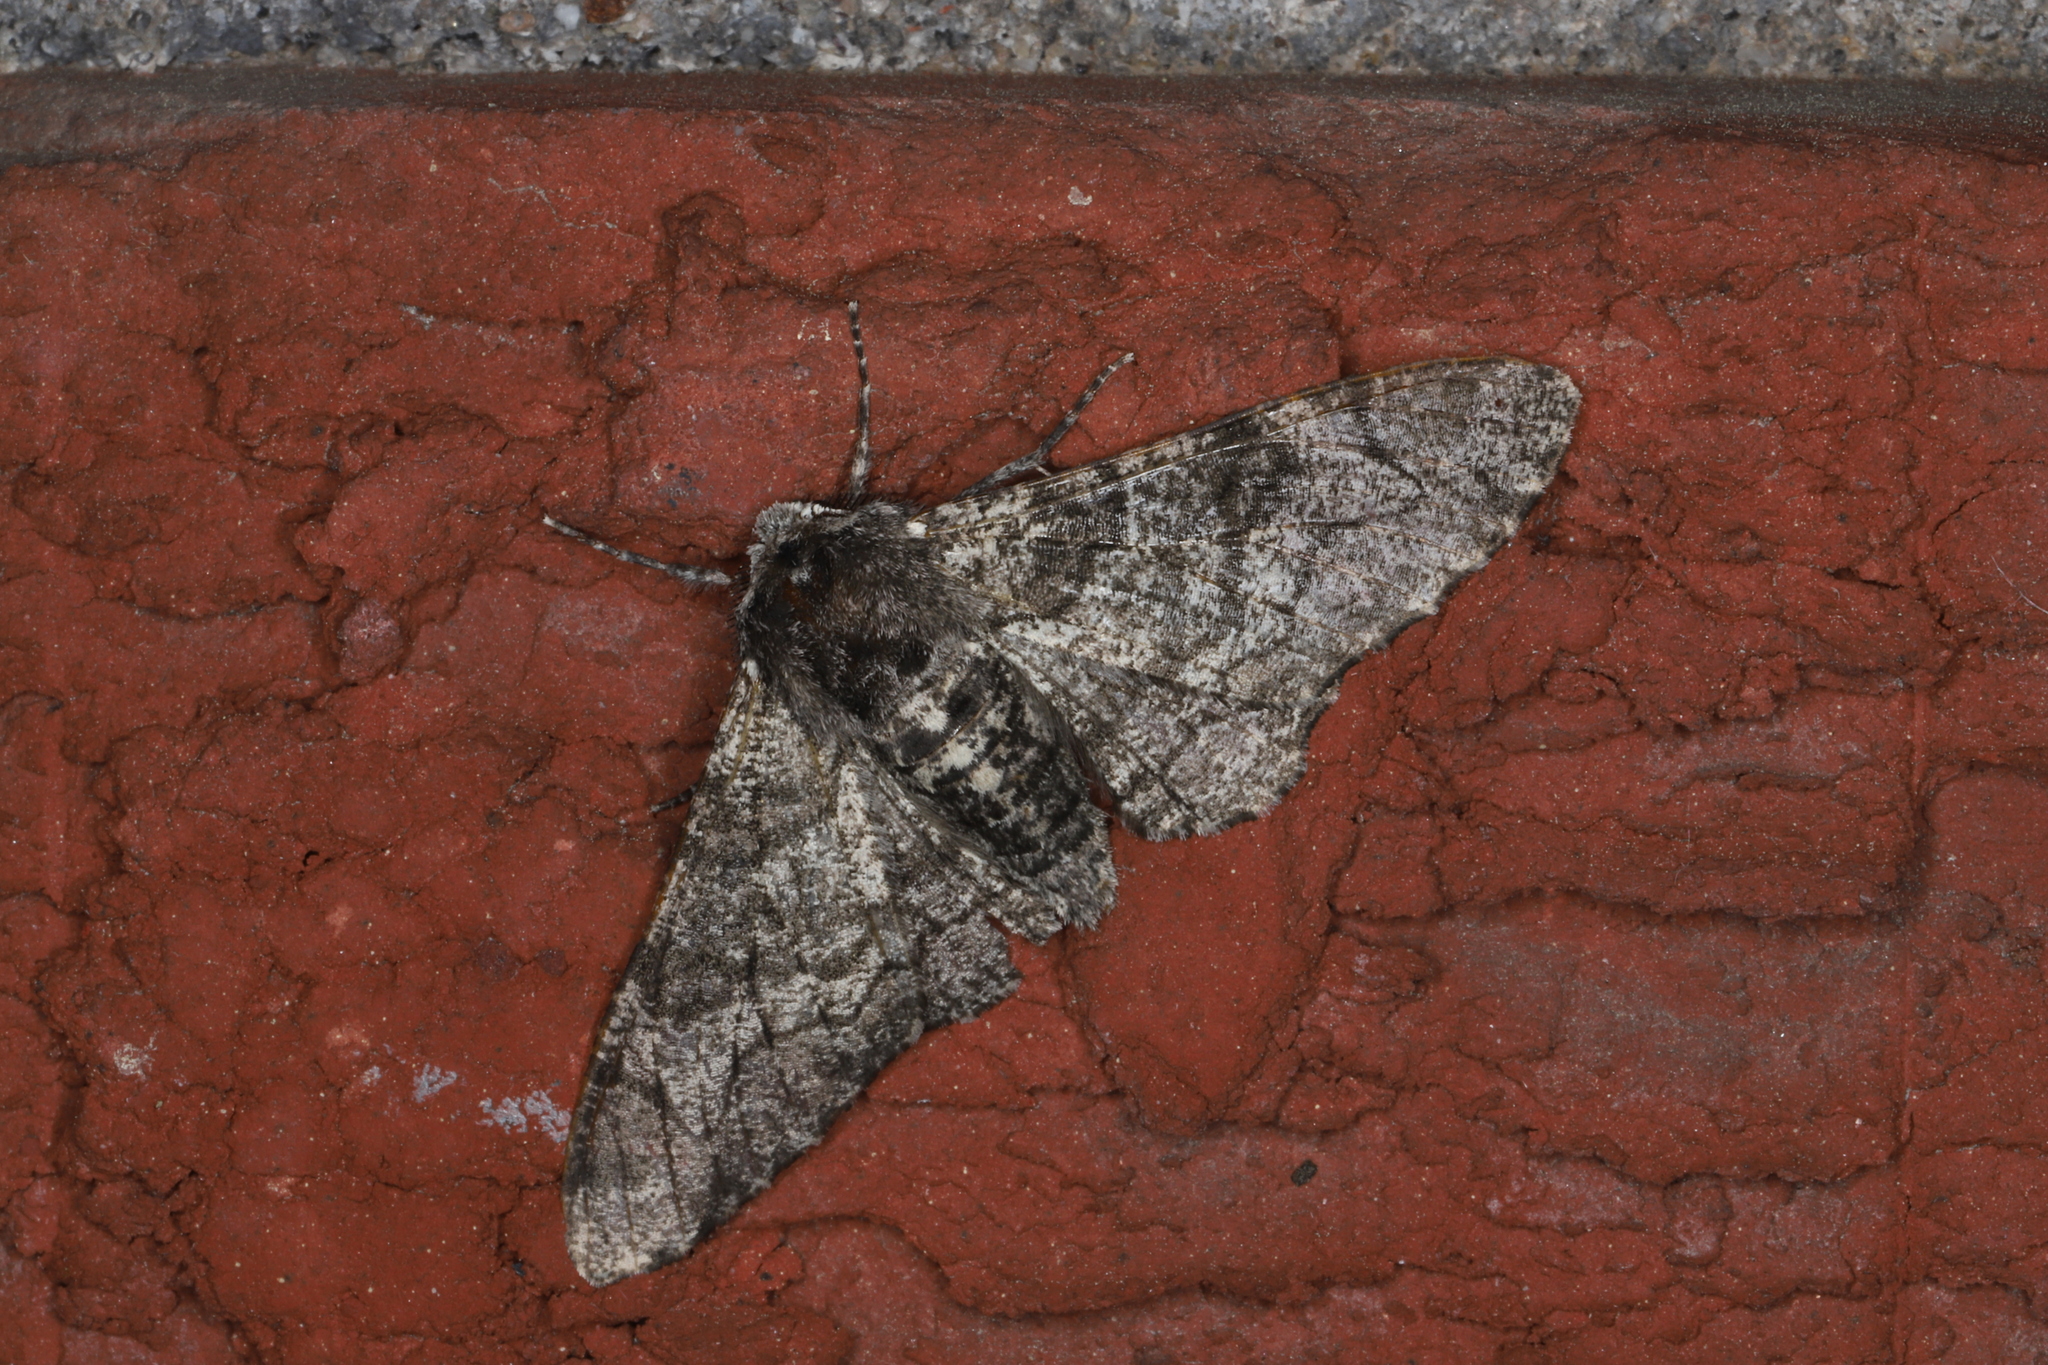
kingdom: Animalia
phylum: Arthropoda
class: Insecta
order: Lepidoptera
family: Geometridae
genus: Biston
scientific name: Biston betularia
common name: Peppered moth
